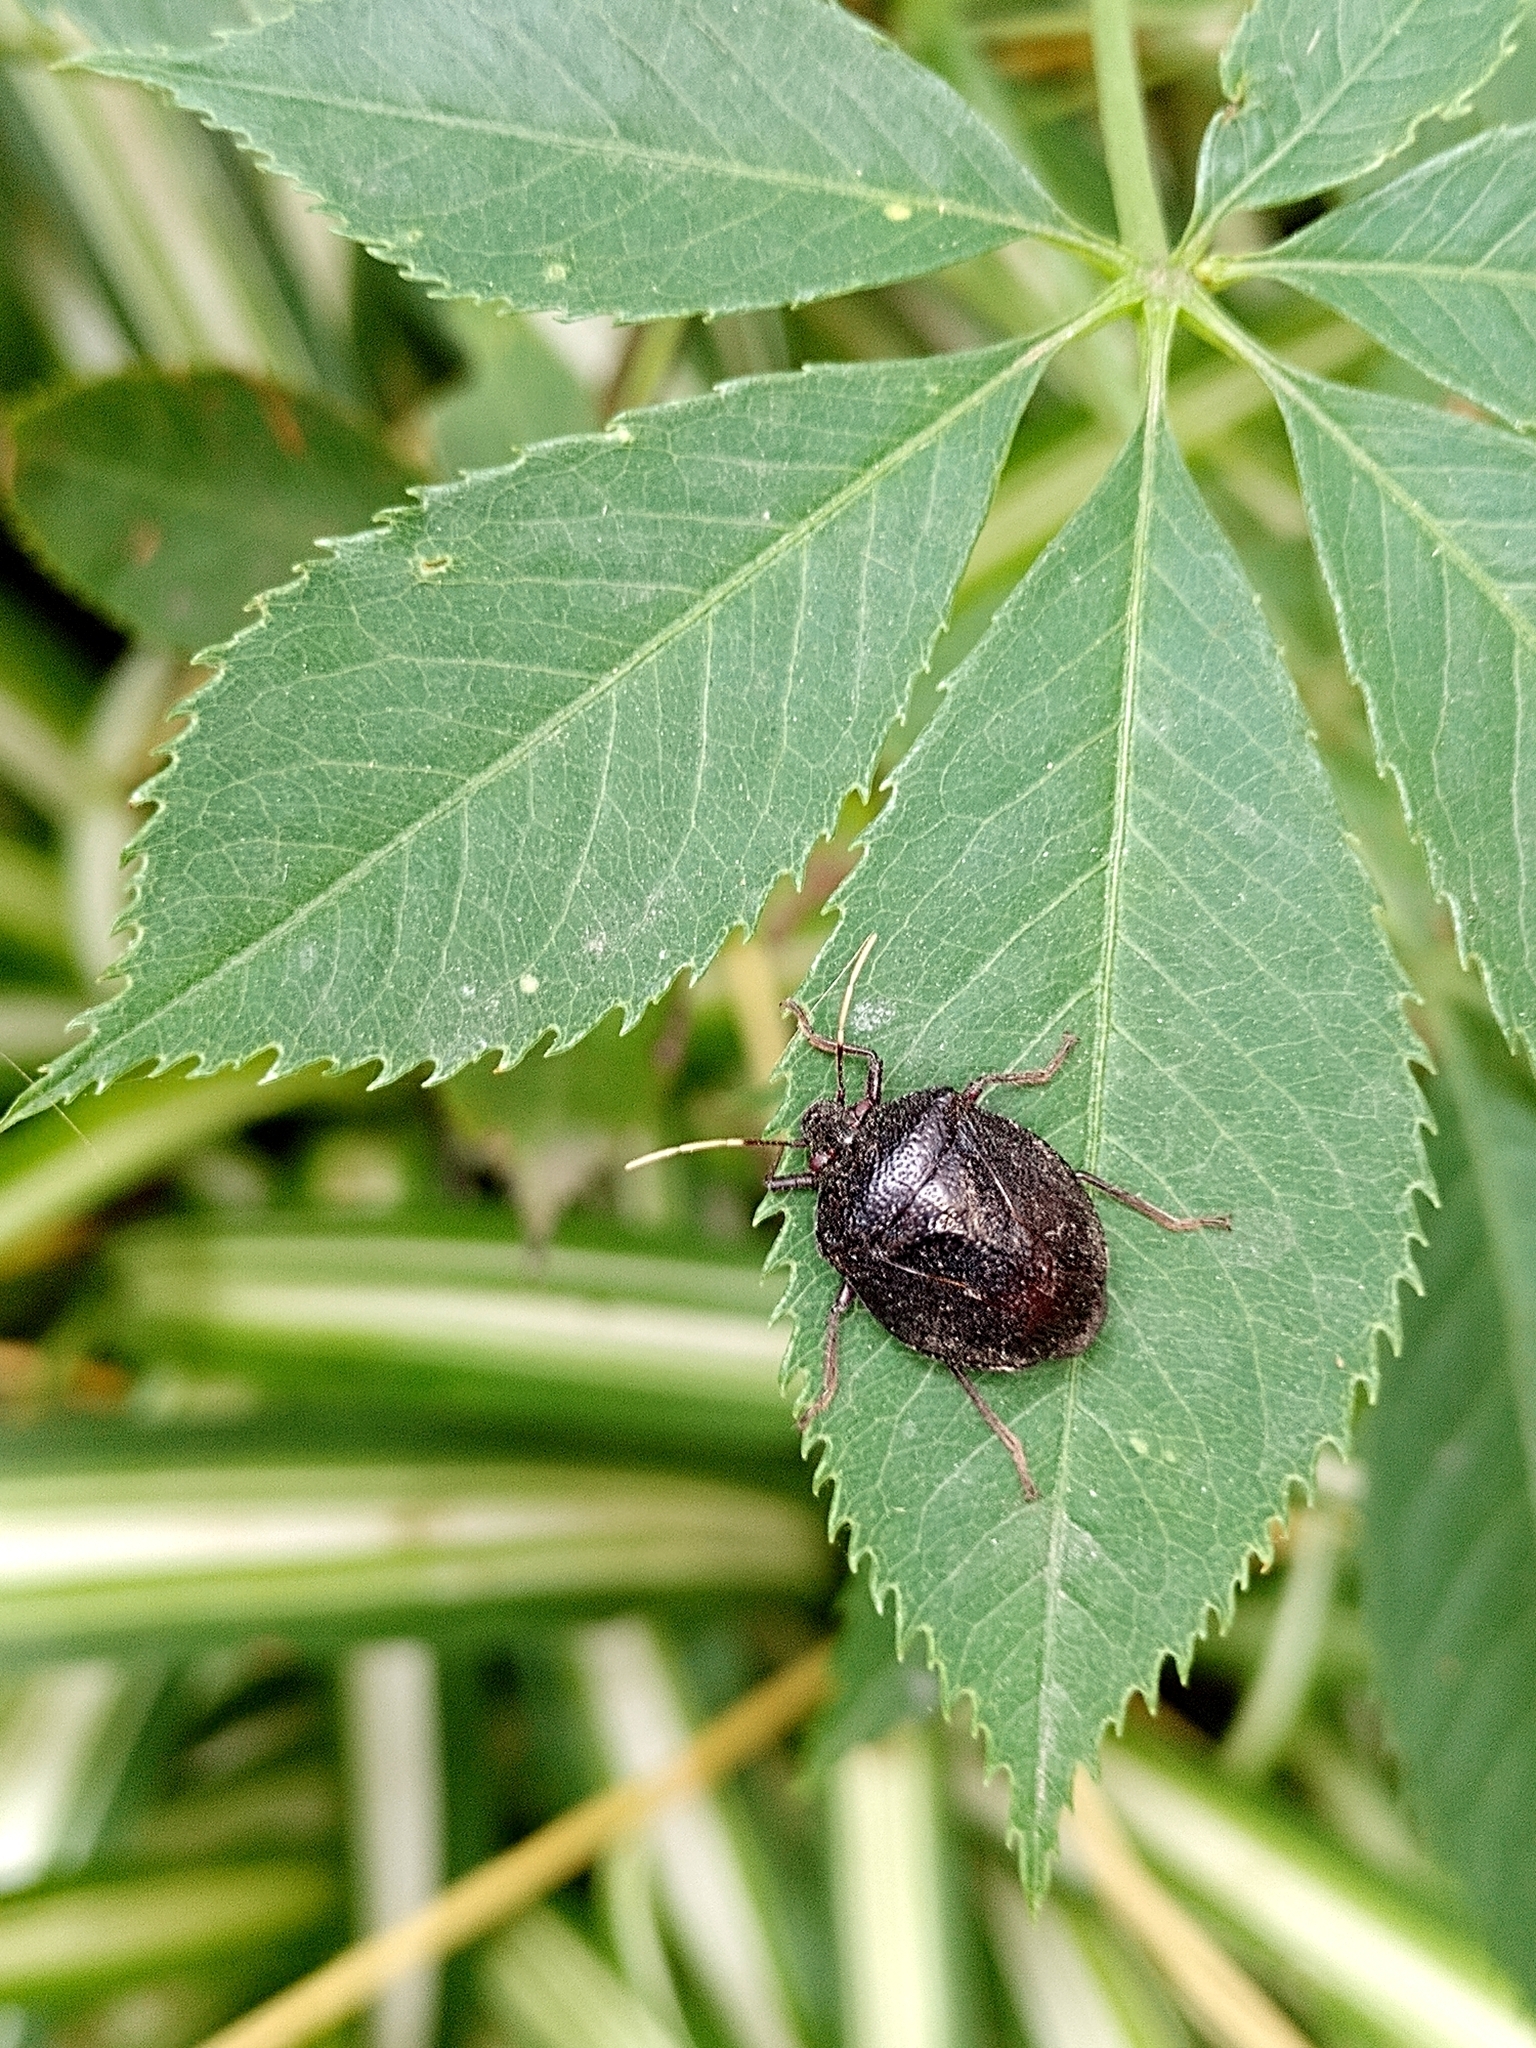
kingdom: Animalia
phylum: Arthropoda
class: Insecta
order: Hemiptera
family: Pentatomidae
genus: Antiteuchus
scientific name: Antiteuchus mixtus
